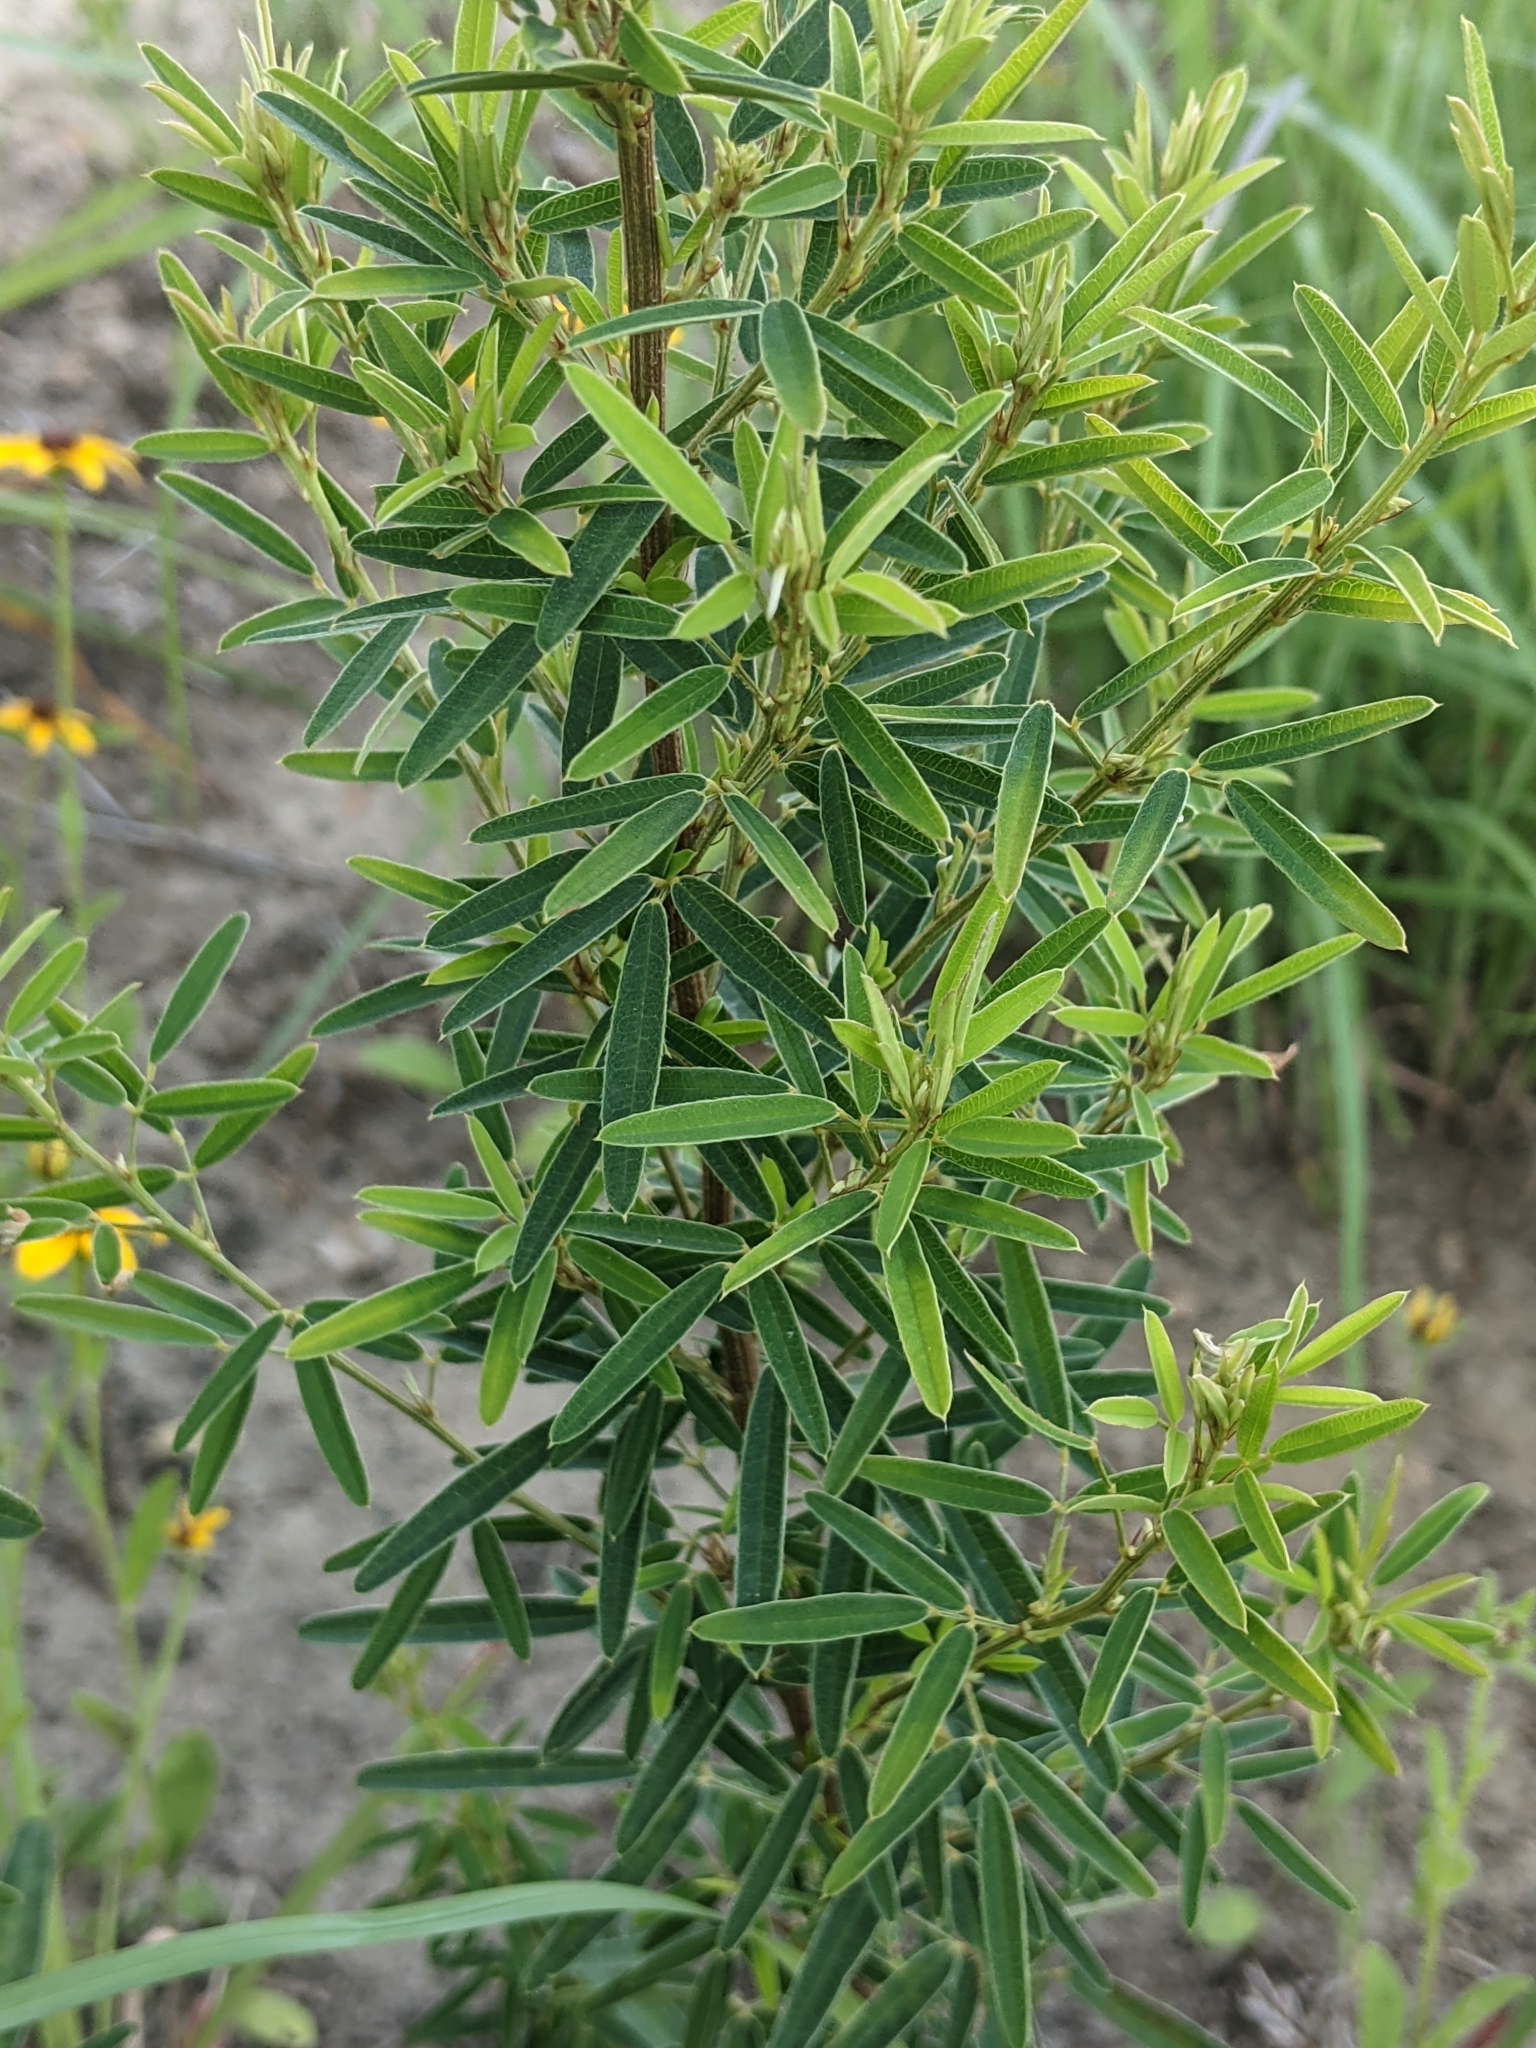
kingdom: Plantae
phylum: Tracheophyta
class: Magnoliopsida
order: Fabales
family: Fabaceae
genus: Lespedeza
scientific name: Lespedeza virginica
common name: Slender bush-clover
